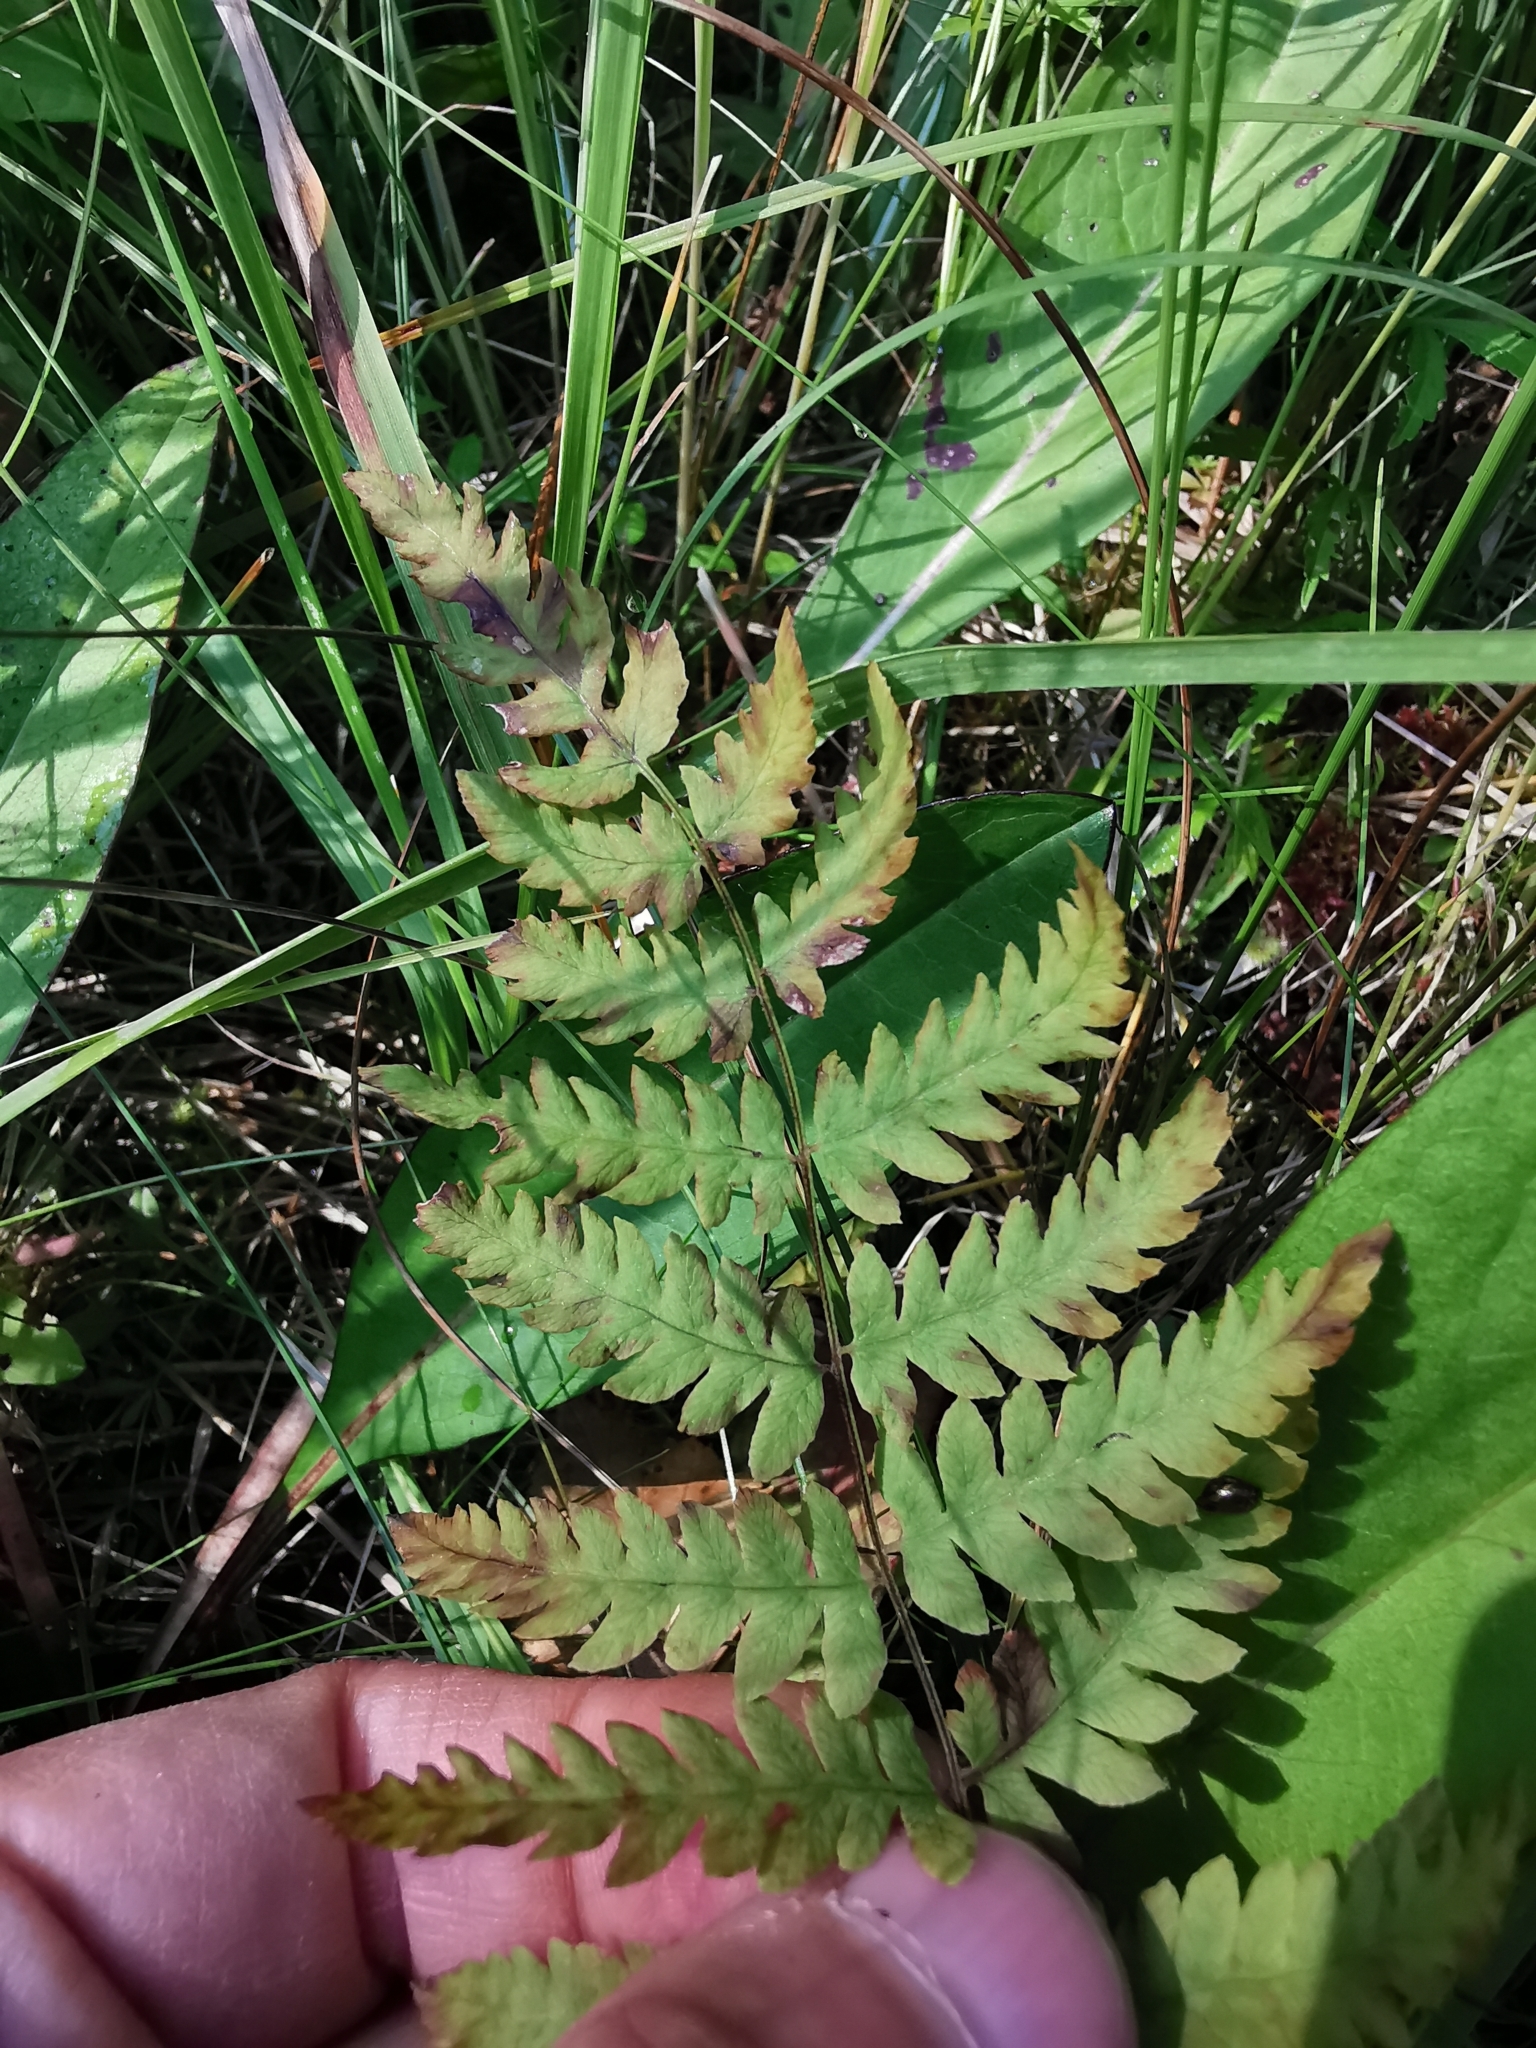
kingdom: Plantae
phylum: Tracheophyta
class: Polypodiopsida
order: Polypodiales
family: Thelypteridaceae
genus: Thelypteris
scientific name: Thelypteris palustris
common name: Marsh fern
